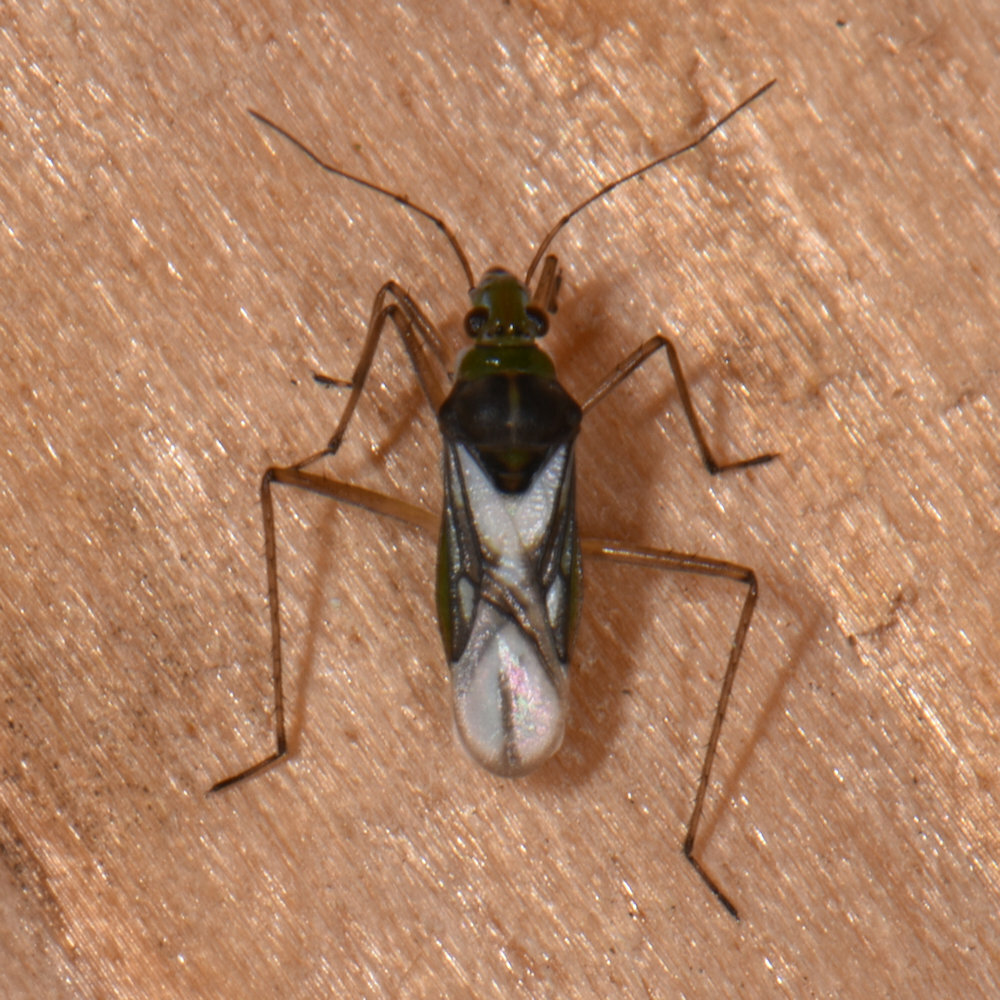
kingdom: Animalia
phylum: Arthropoda
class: Insecta
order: Hemiptera
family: Mesoveliidae
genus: Mesovelia
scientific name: Mesovelia mulsanti
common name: Water treaders
